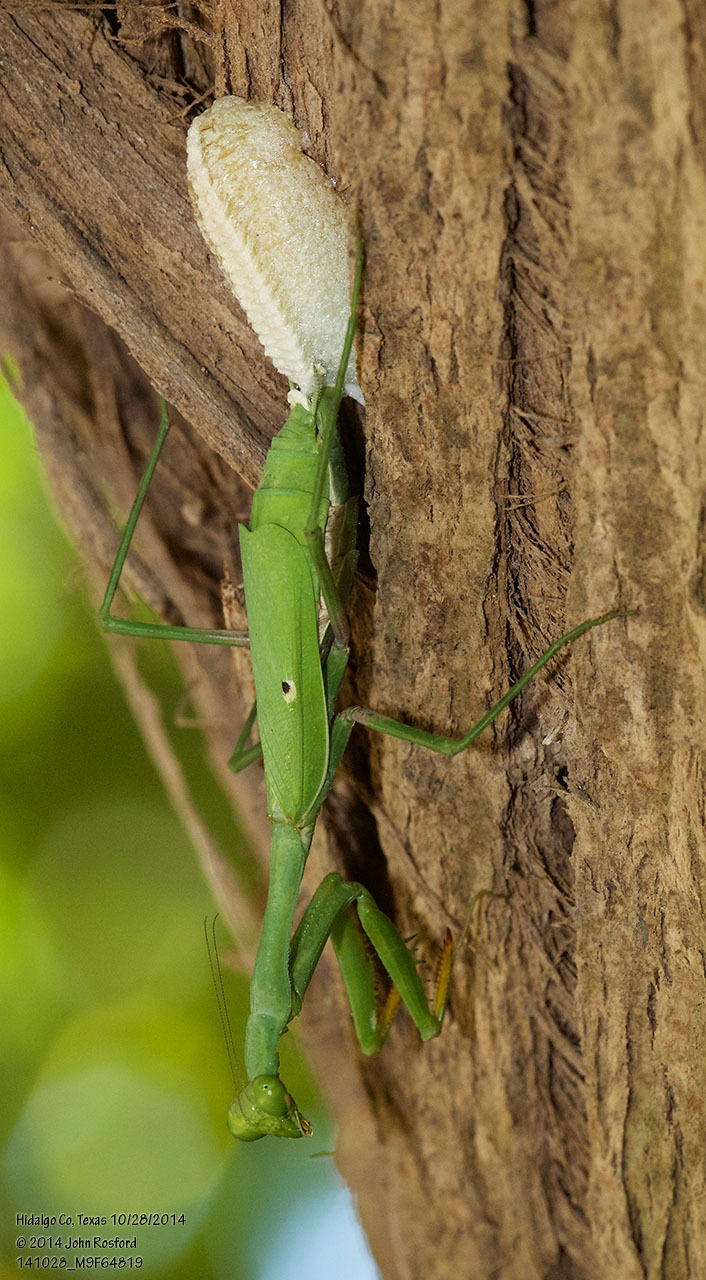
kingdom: Animalia
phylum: Arthropoda
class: Insecta
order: Mantodea
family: Mantidae
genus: Stagmomantis
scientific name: Stagmomantis carolina
